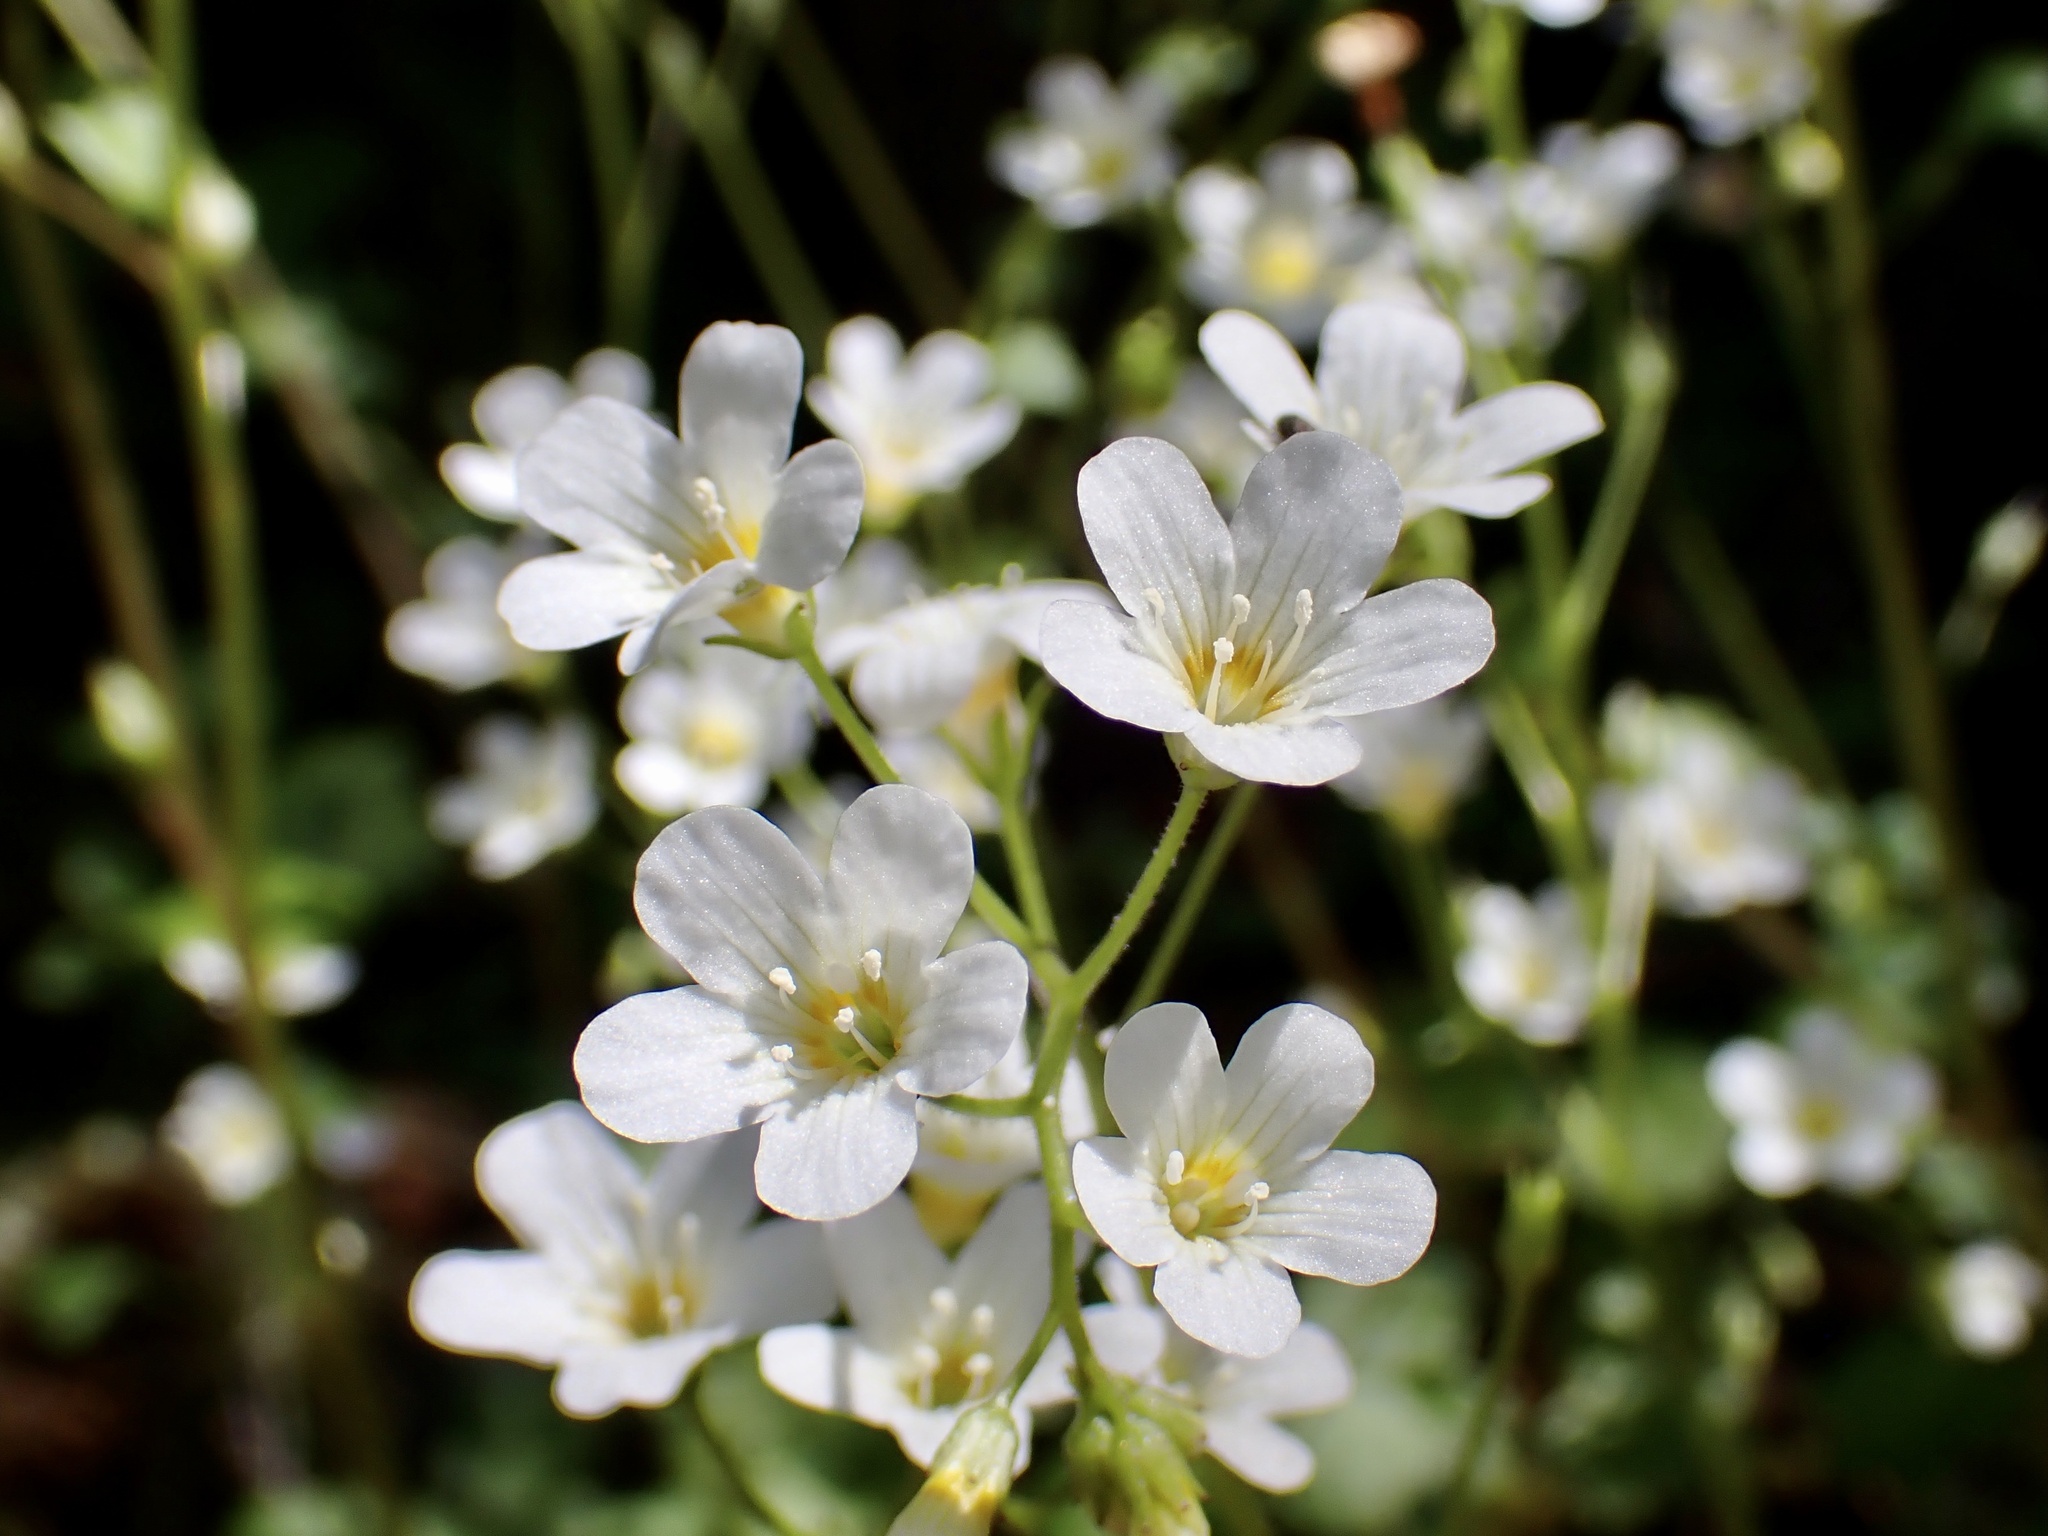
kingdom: Plantae
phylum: Tracheophyta
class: Magnoliopsida
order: Boraginales
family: Hydrophyllaceae
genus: Romanzoffia
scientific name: Romanzoffia californica
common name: California mistmaiden
